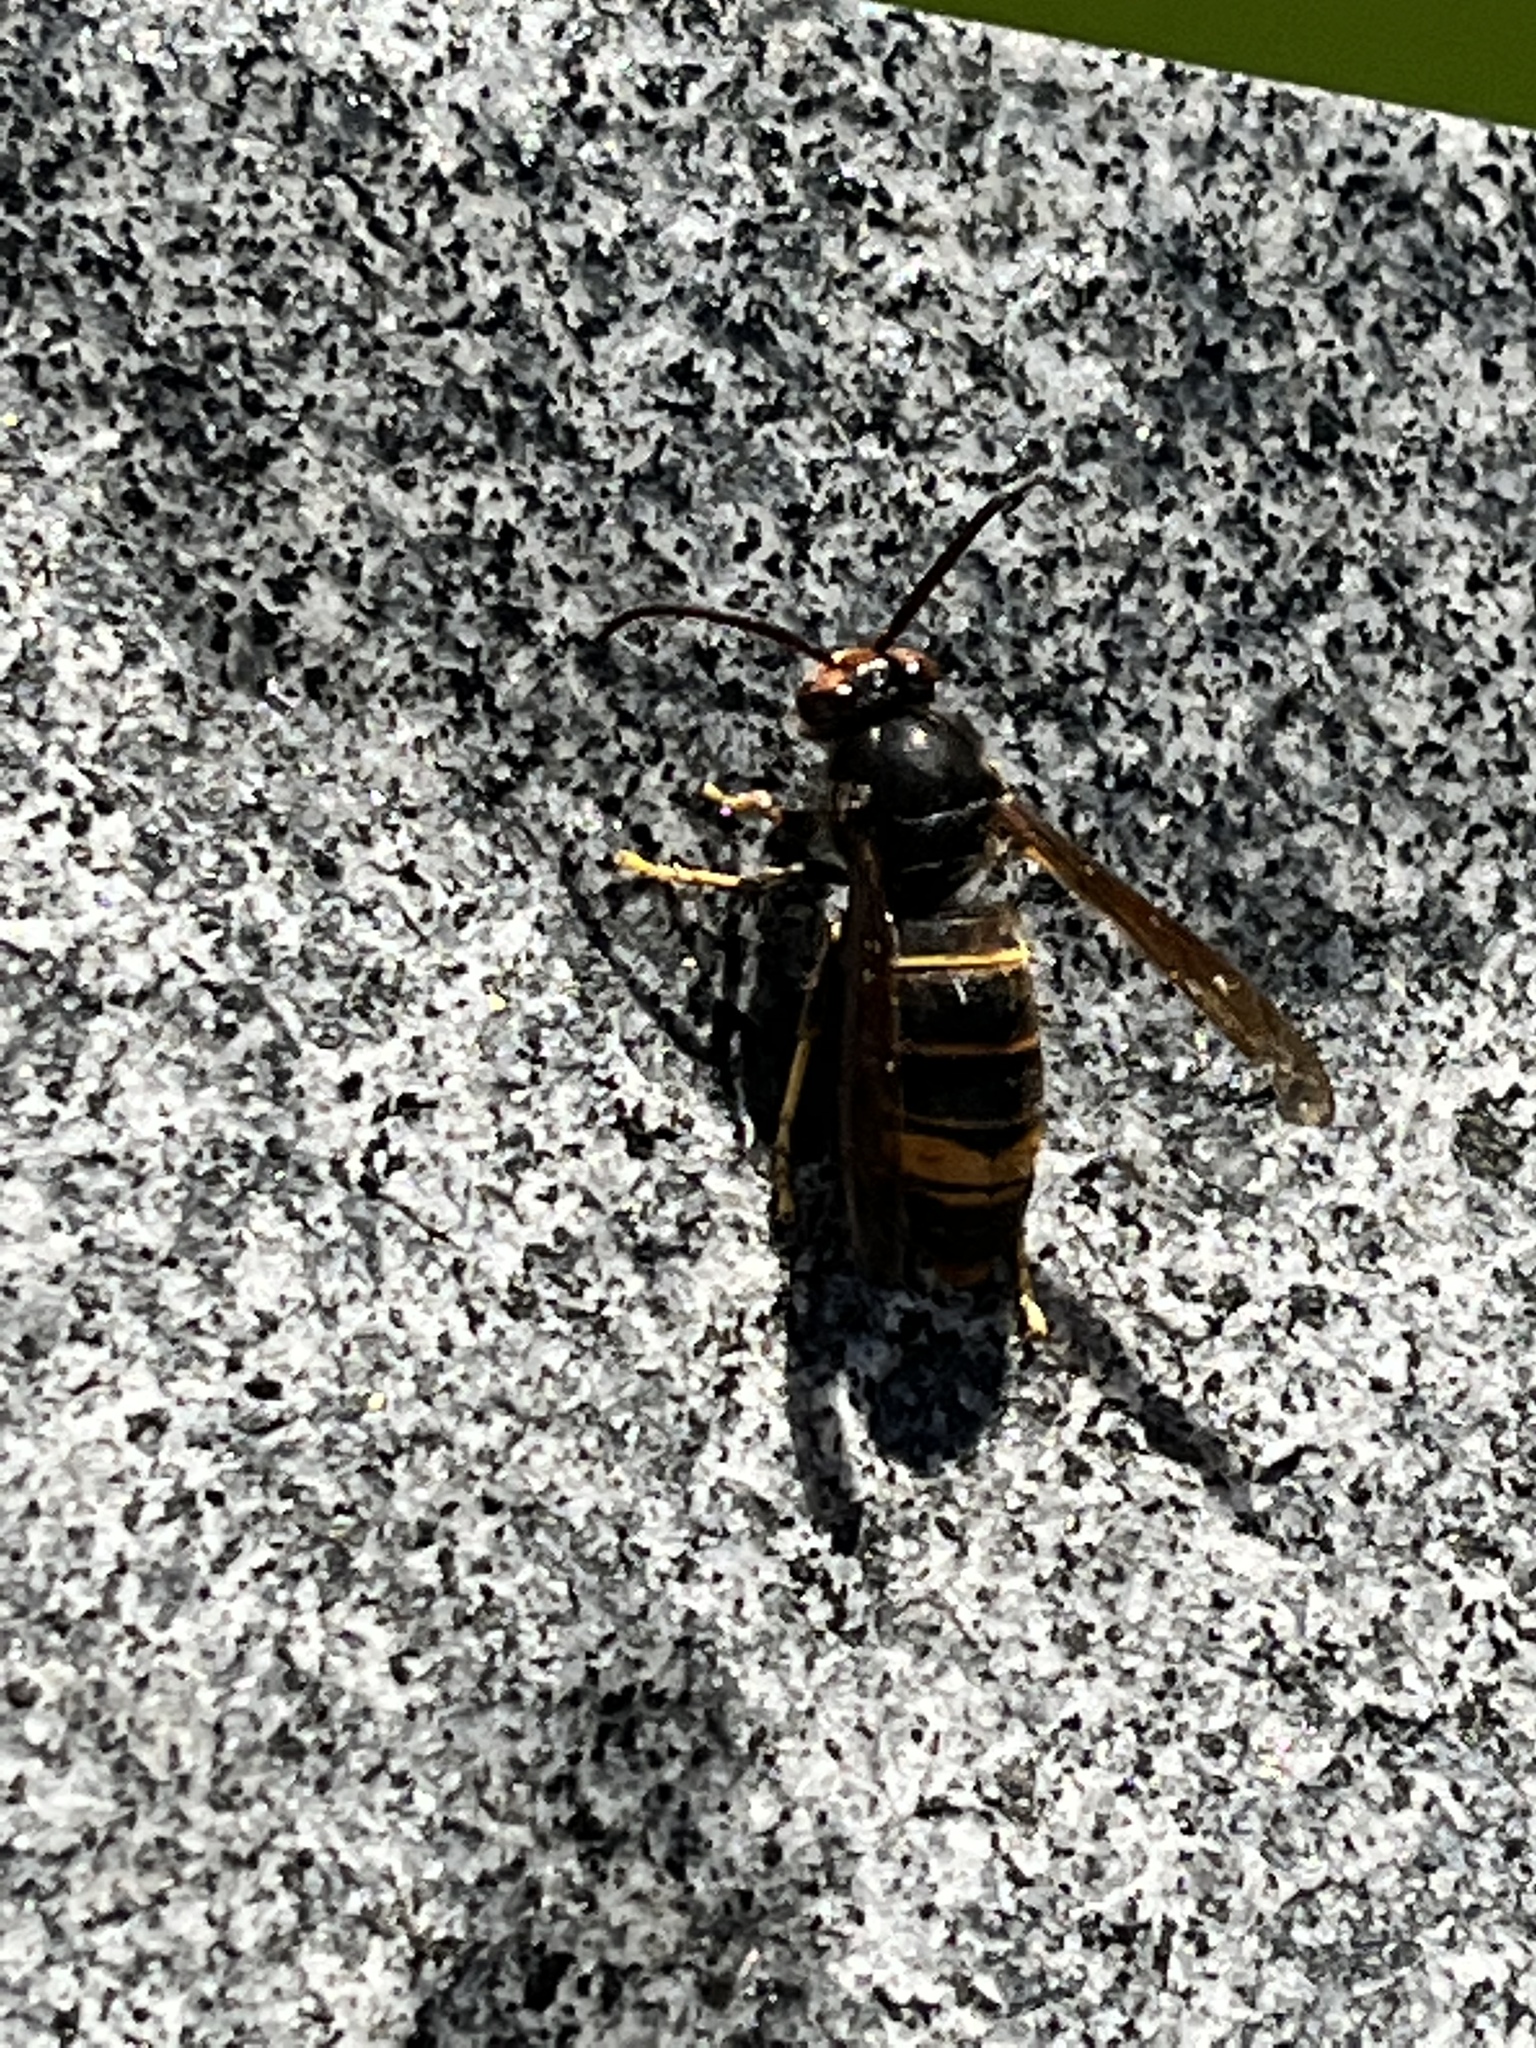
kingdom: Animalia
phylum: Arthropoda
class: Insecta
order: Hymenoptera
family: Vespidae
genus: Vespa
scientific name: Vespa velutina
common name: Asian hornet
